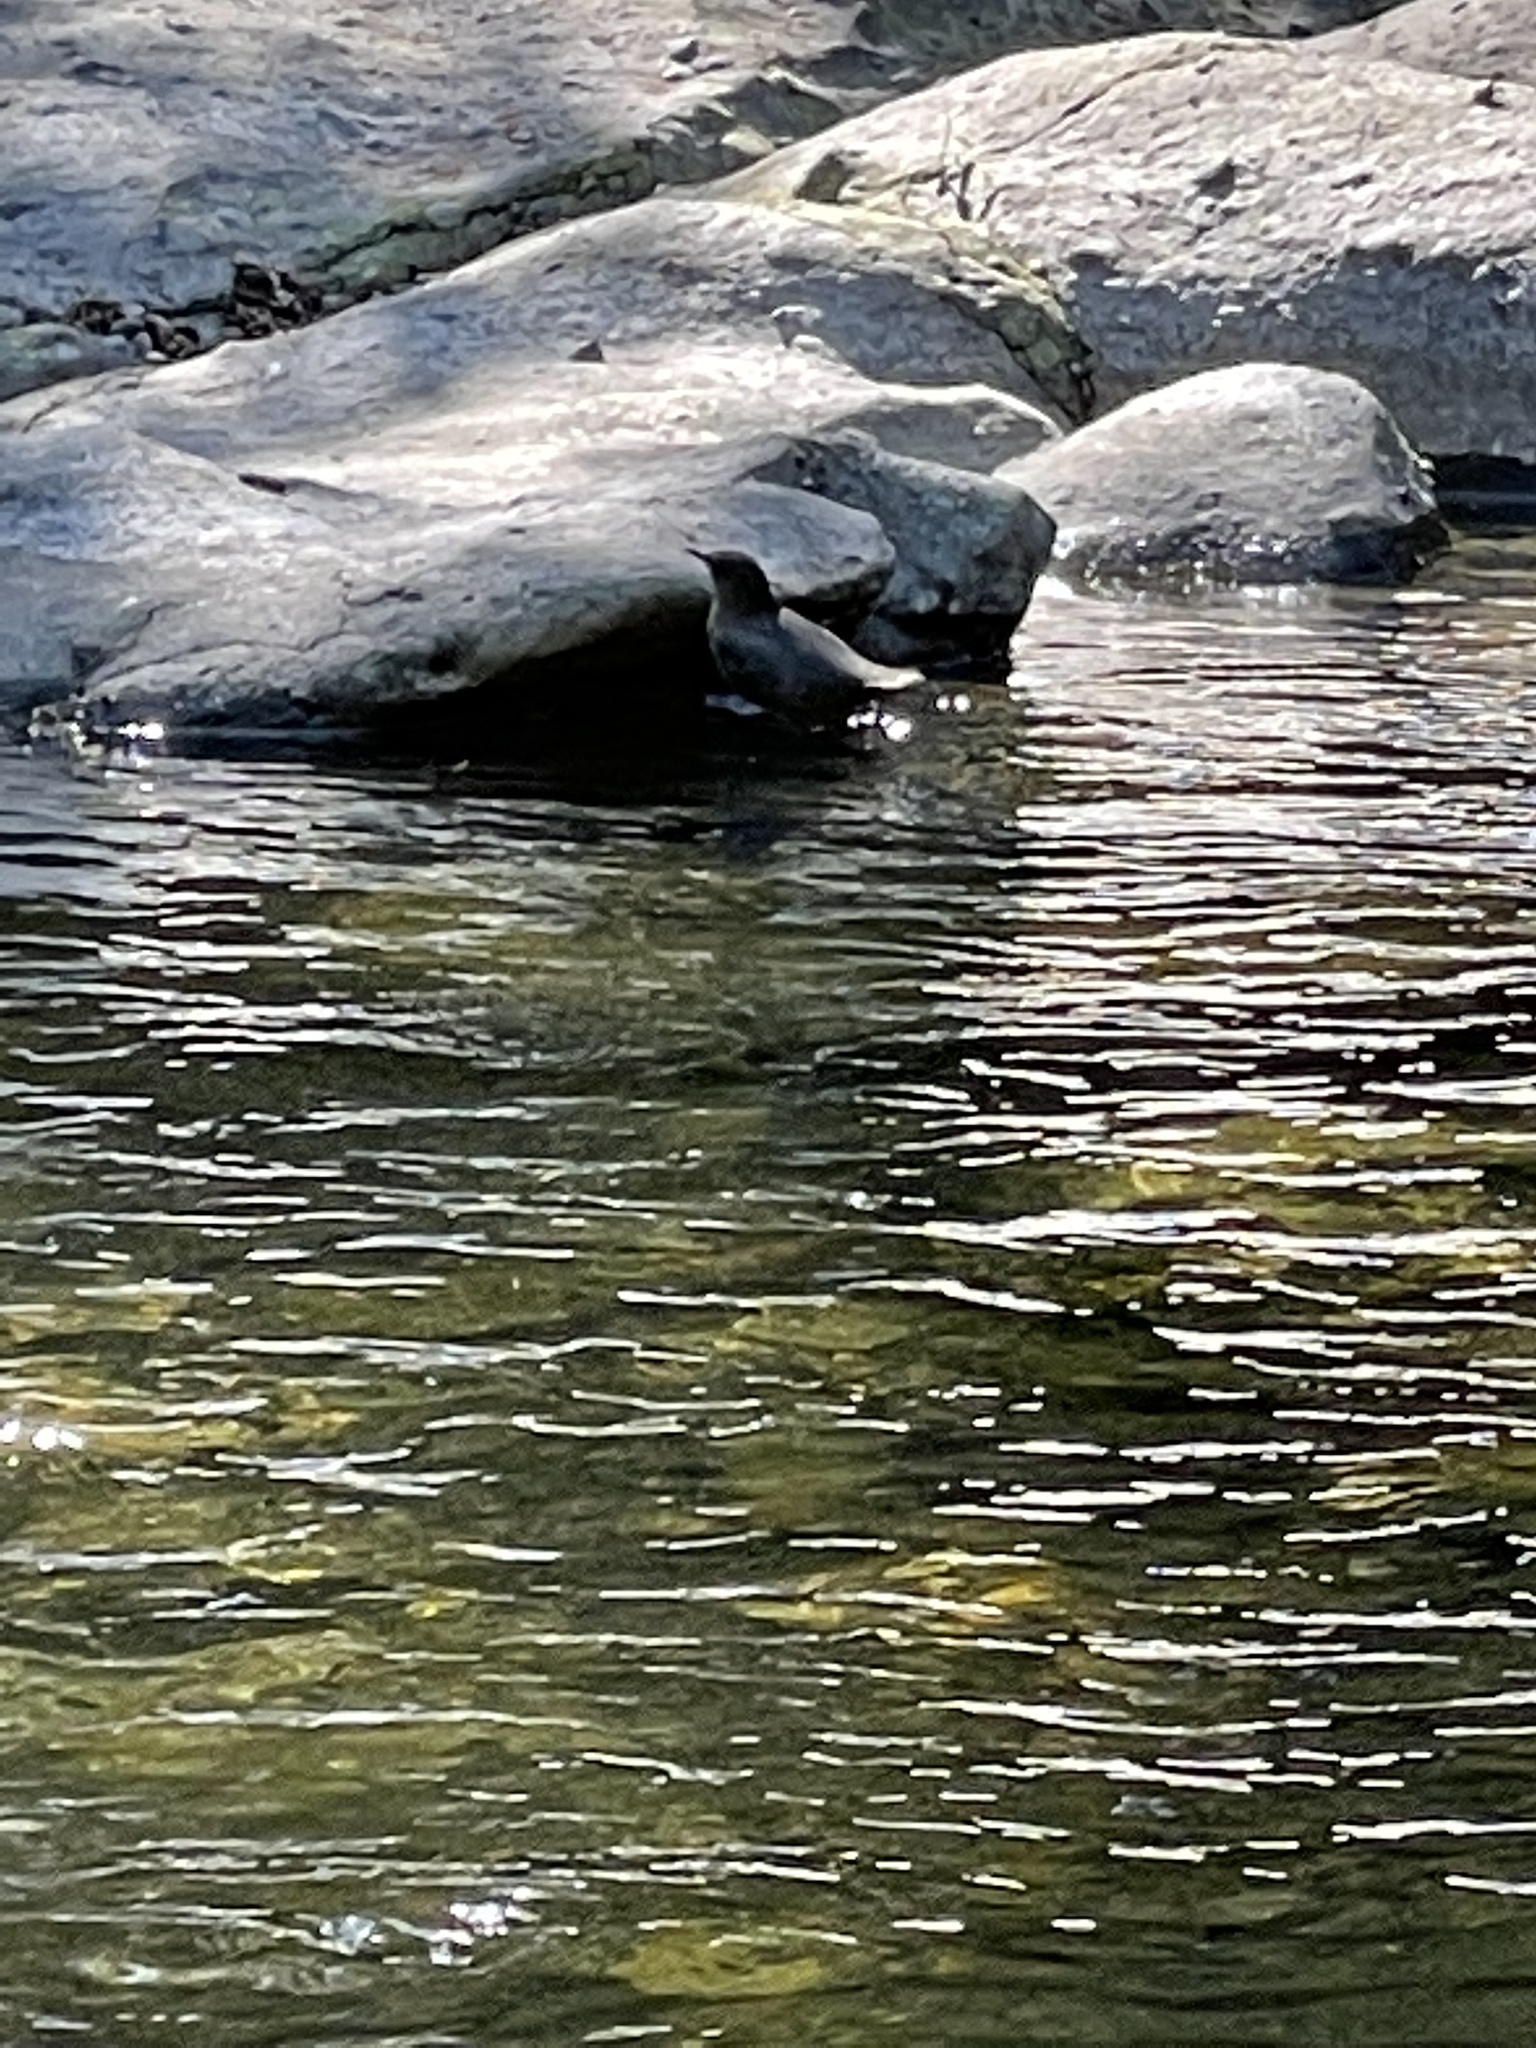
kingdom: Animalia
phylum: Chordata
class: Aves
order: Passeriformes
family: Cinclidae
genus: Cinclus
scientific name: Cinclus mexicanus
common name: American dipper
